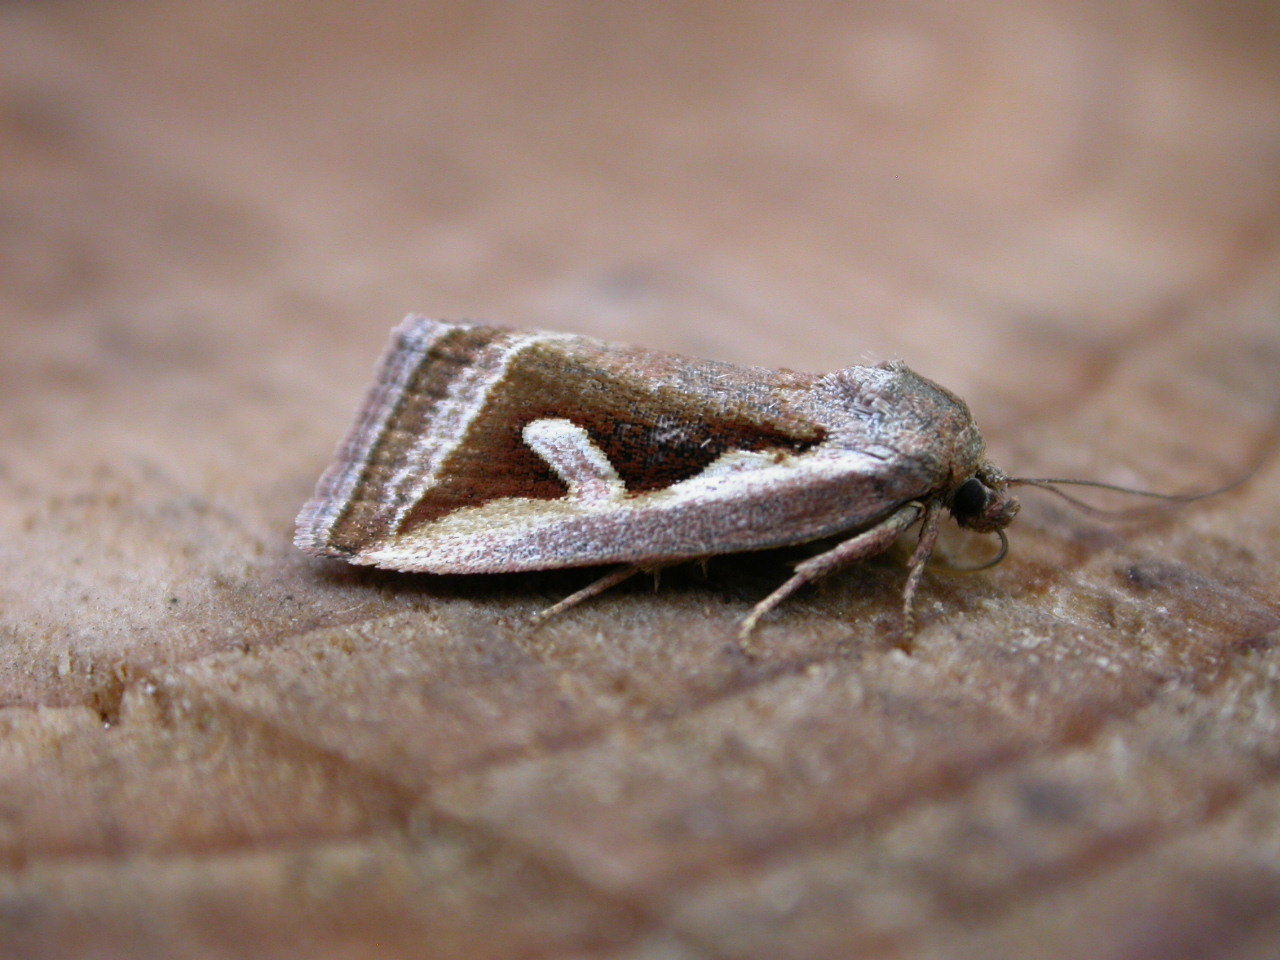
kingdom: Animalia
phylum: Arthropoda
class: Insecta
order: Lepidoptera
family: Noctuidae
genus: Deltote
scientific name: Deltote uncula
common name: Silver hook
